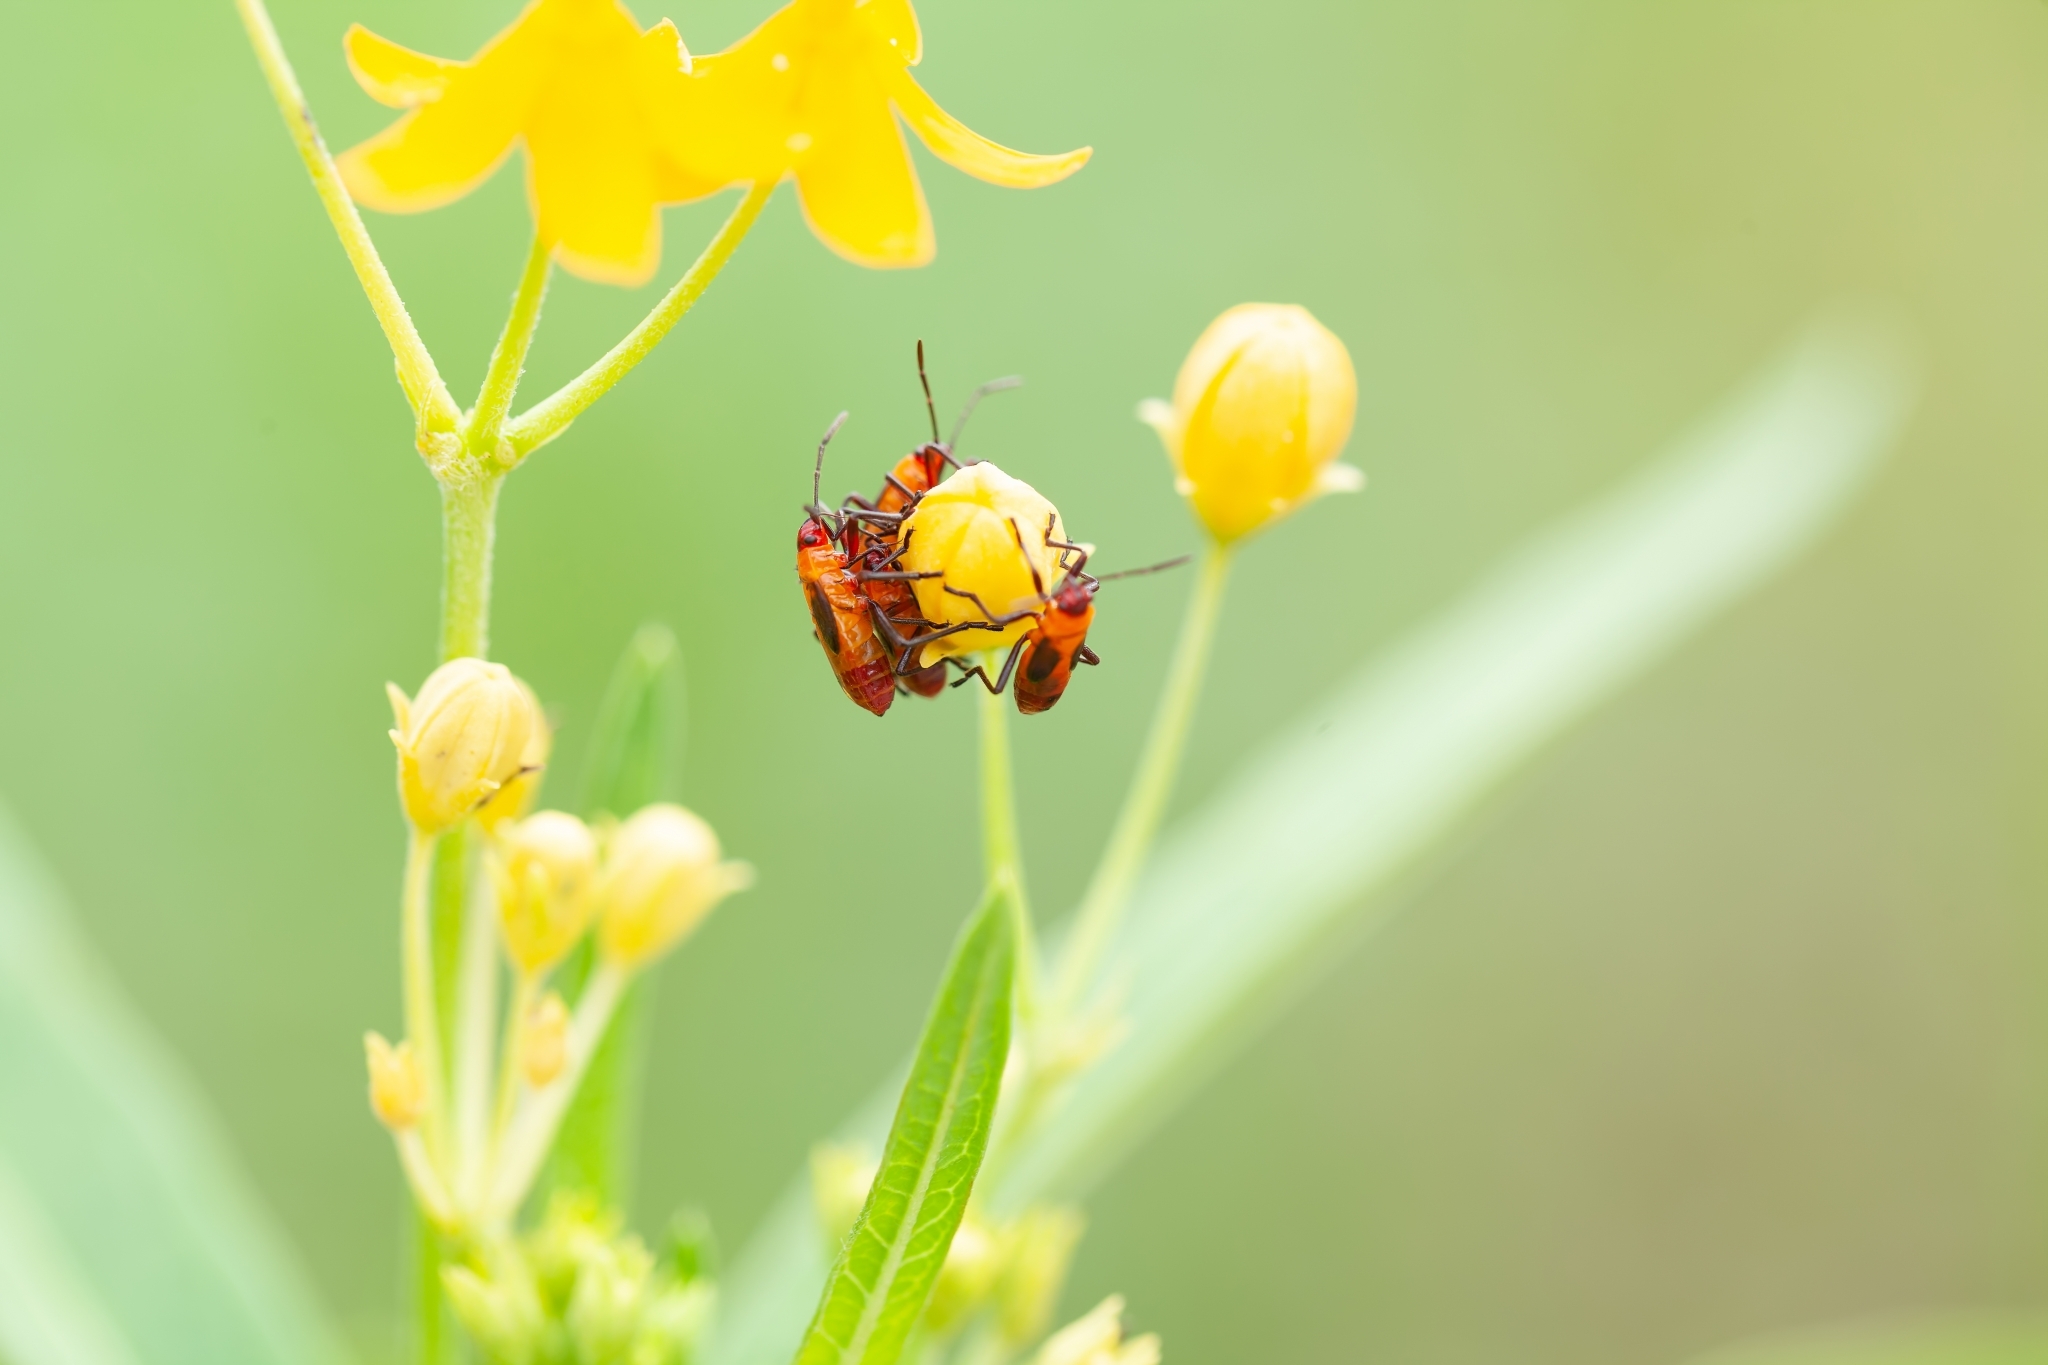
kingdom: Animalia
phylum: Arthropoda
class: Insecta
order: Hemiptera
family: Lygaeidae
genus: Oncopeltus
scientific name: Oncopeltus cingulifer
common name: Lygaeid bug
